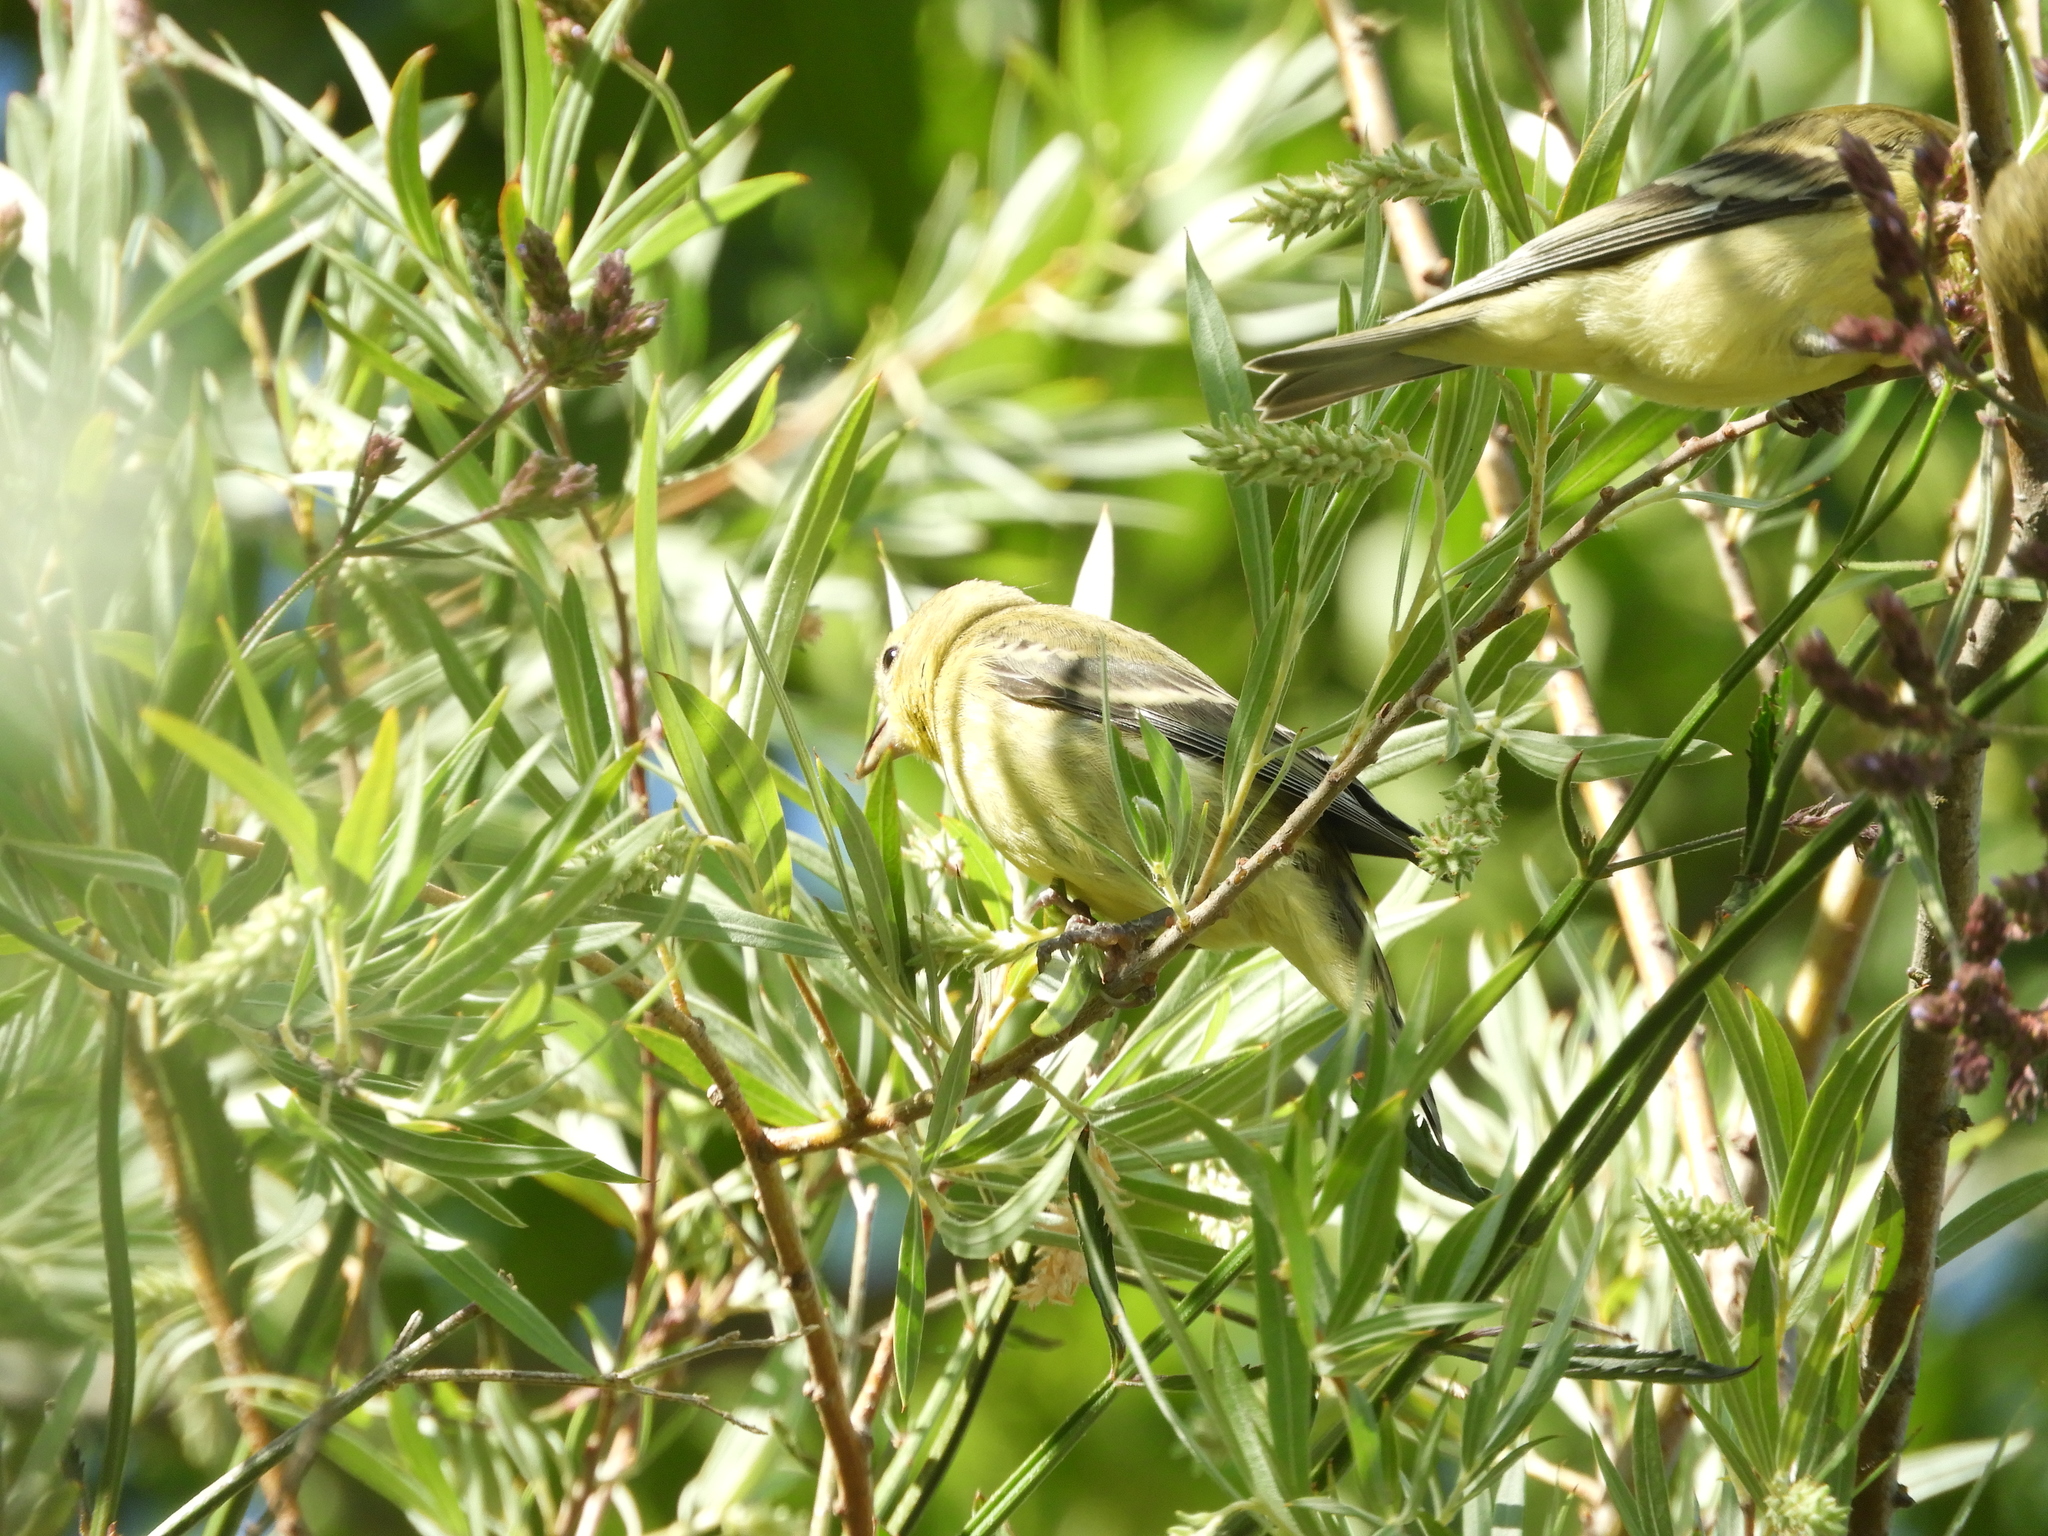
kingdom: Animalia
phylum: Chordata
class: Aves
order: Passeriformes
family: Fringillidae
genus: Spinus
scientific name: Spinus psaltria
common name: Lesser goldfinch
